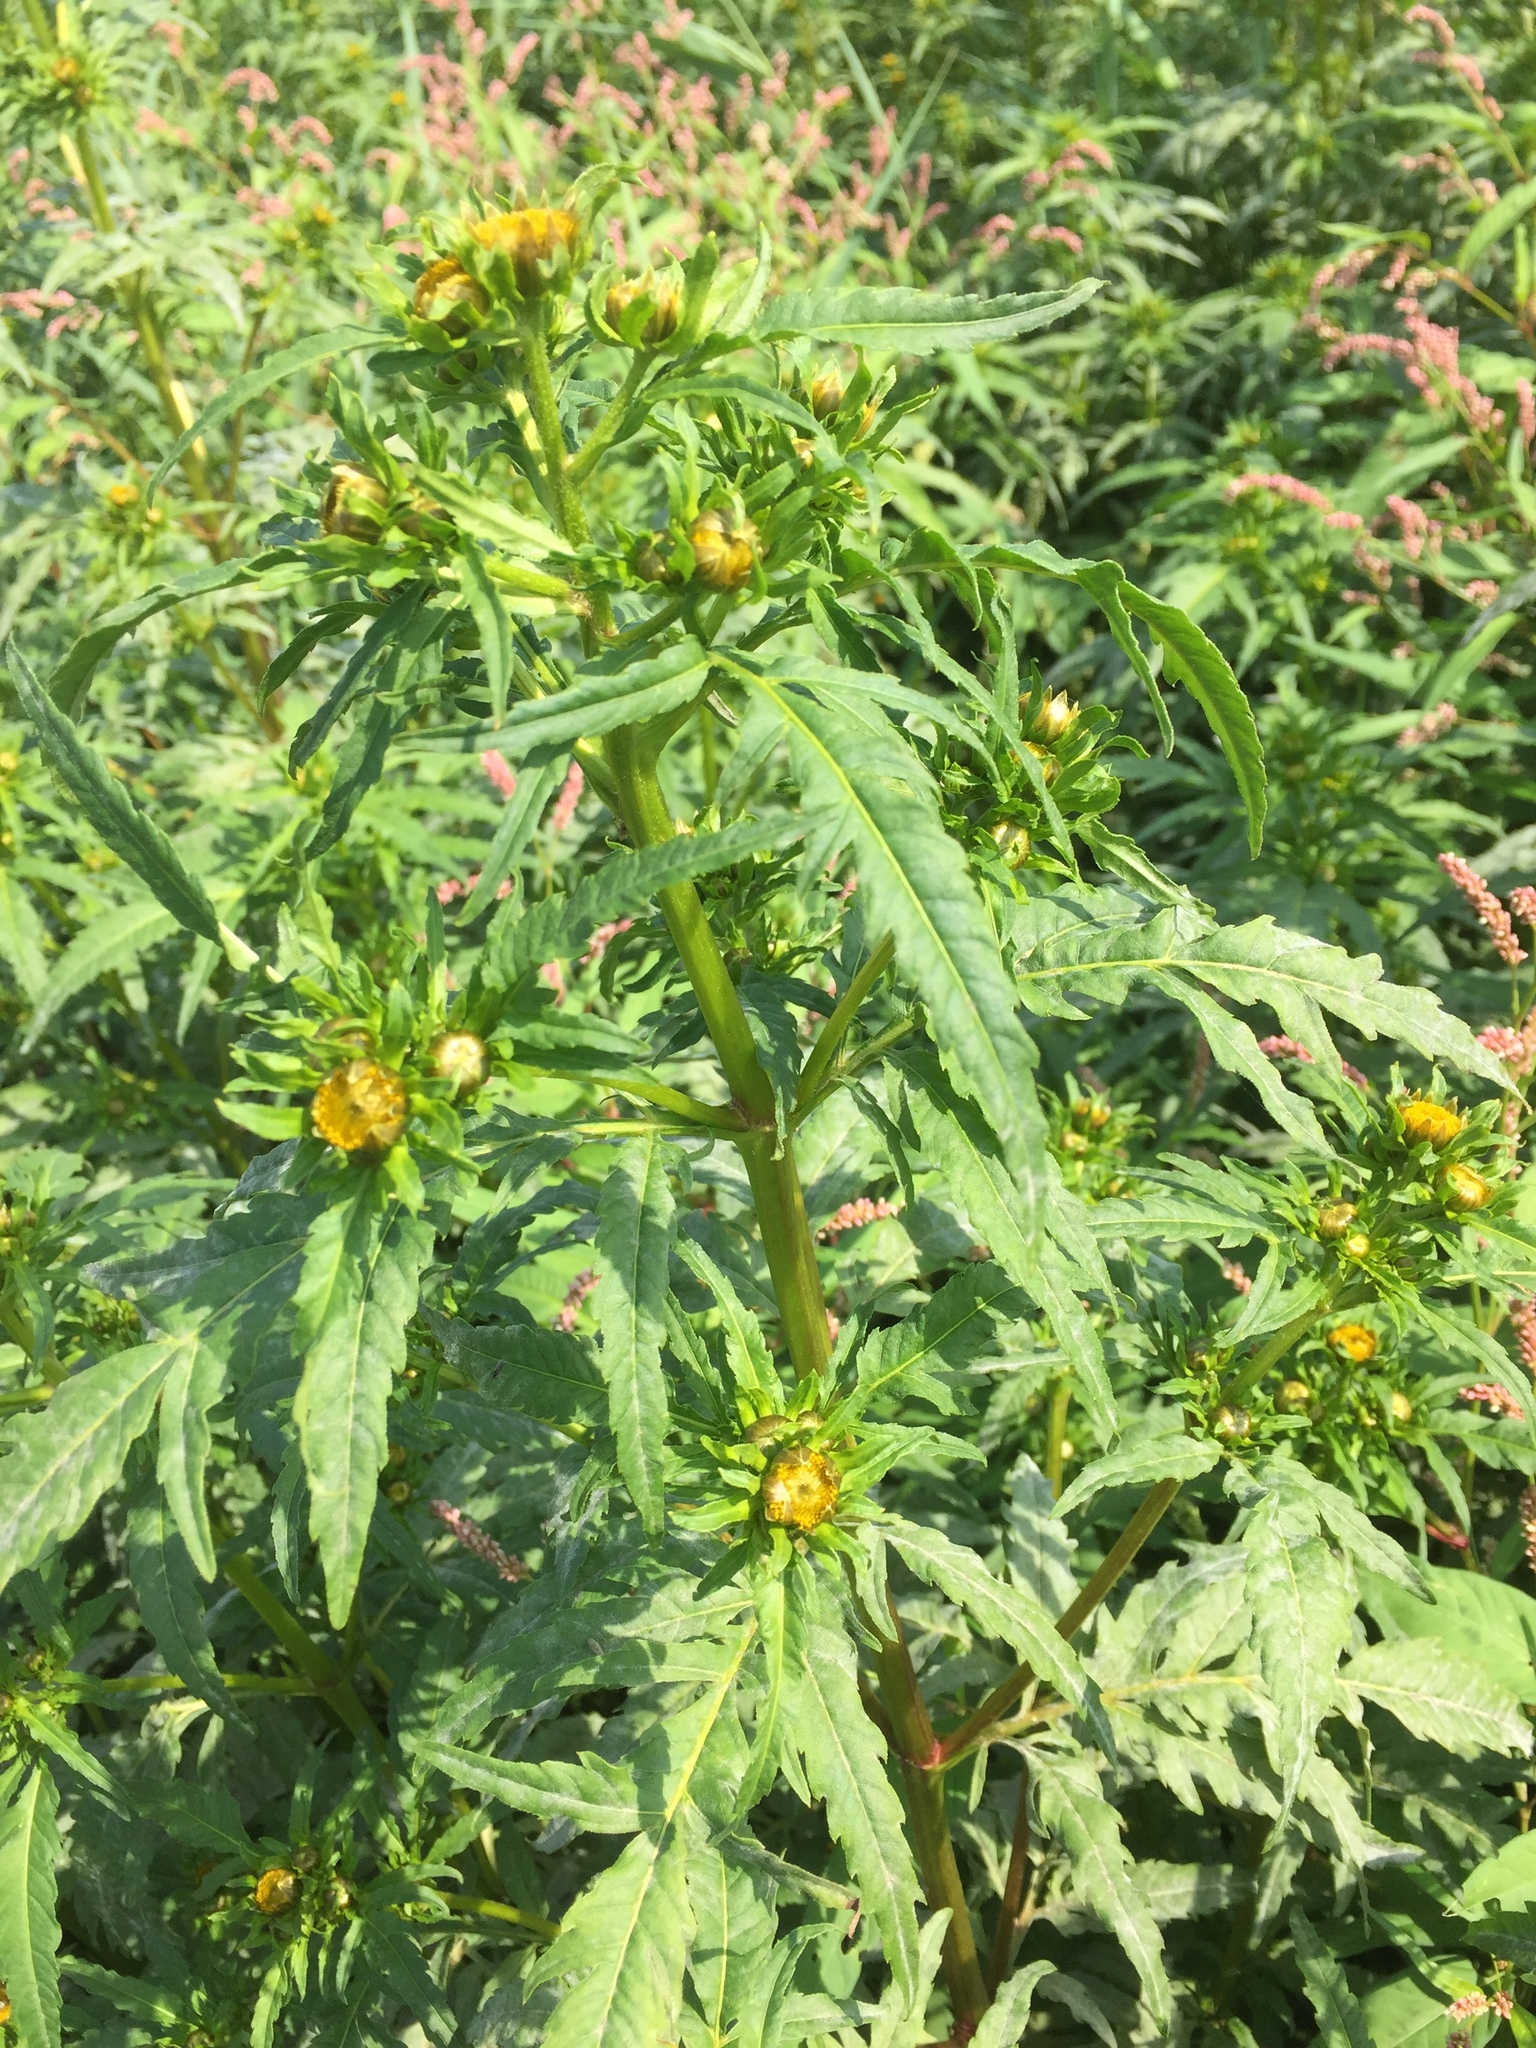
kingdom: Plantae
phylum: Tracheophyta
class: Magnoliopsida
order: Asterales
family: Asteraceae
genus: Bidens
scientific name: Bidens radiata
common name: Radiating bur-marigold
